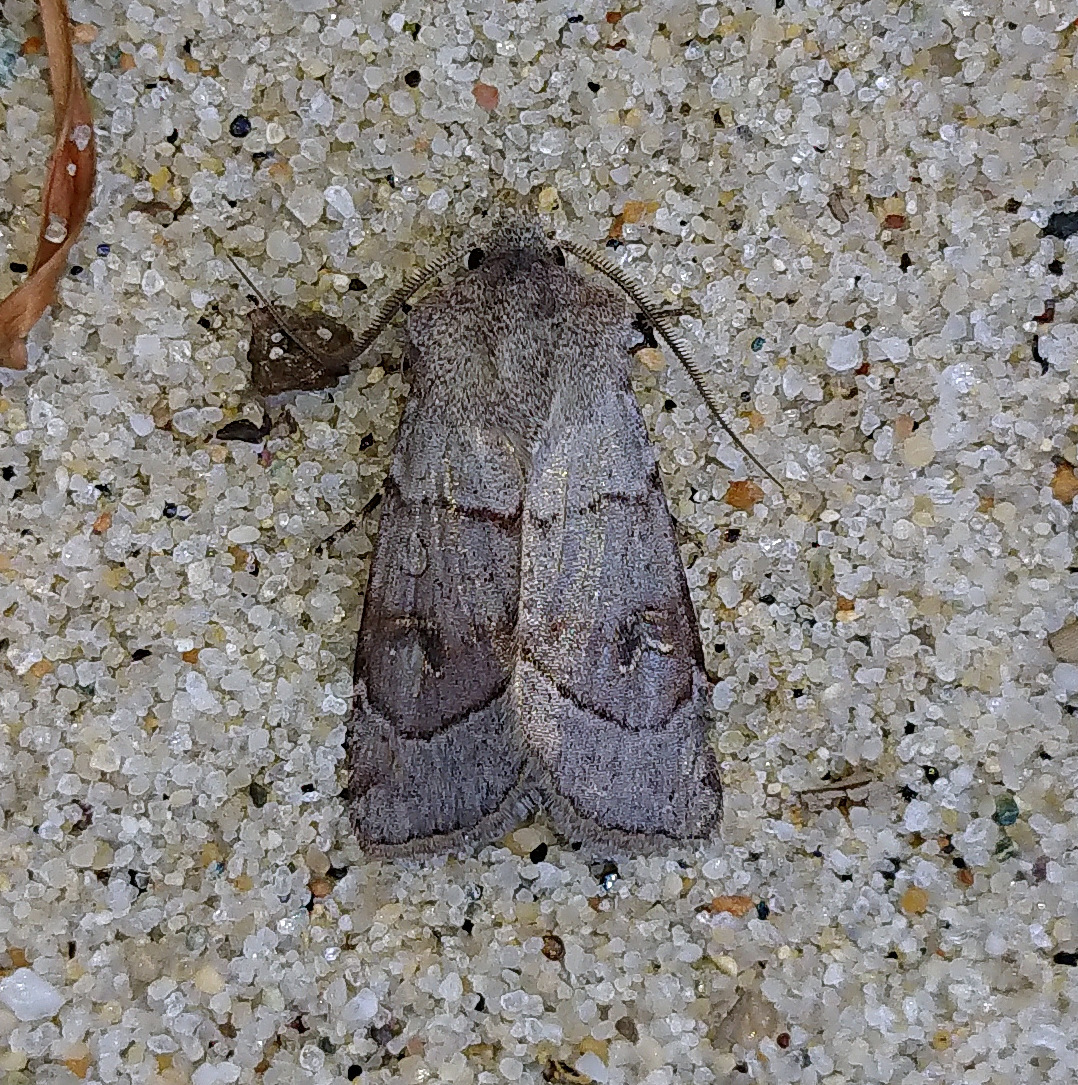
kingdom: Animalia
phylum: Arthropoda
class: Insecta
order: Lepidoptera
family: Noctuidae
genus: Euxoa
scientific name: Euxoa violaris
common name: Violet dart moth
